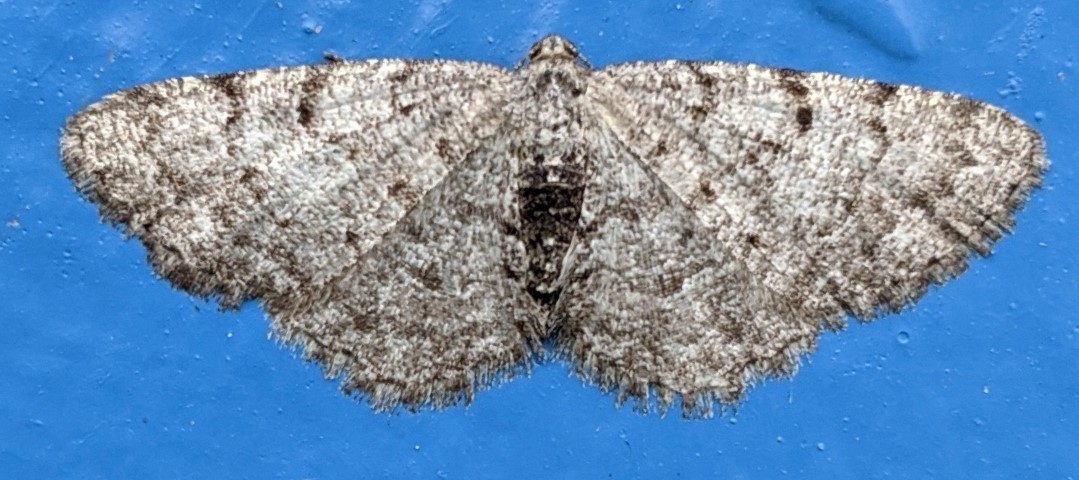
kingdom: Animalia
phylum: Arthropoda
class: Insecta
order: Lepidoptera
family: Geometridae
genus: Aethalura
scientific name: Aethalura intertexta
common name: Four-barred gray
